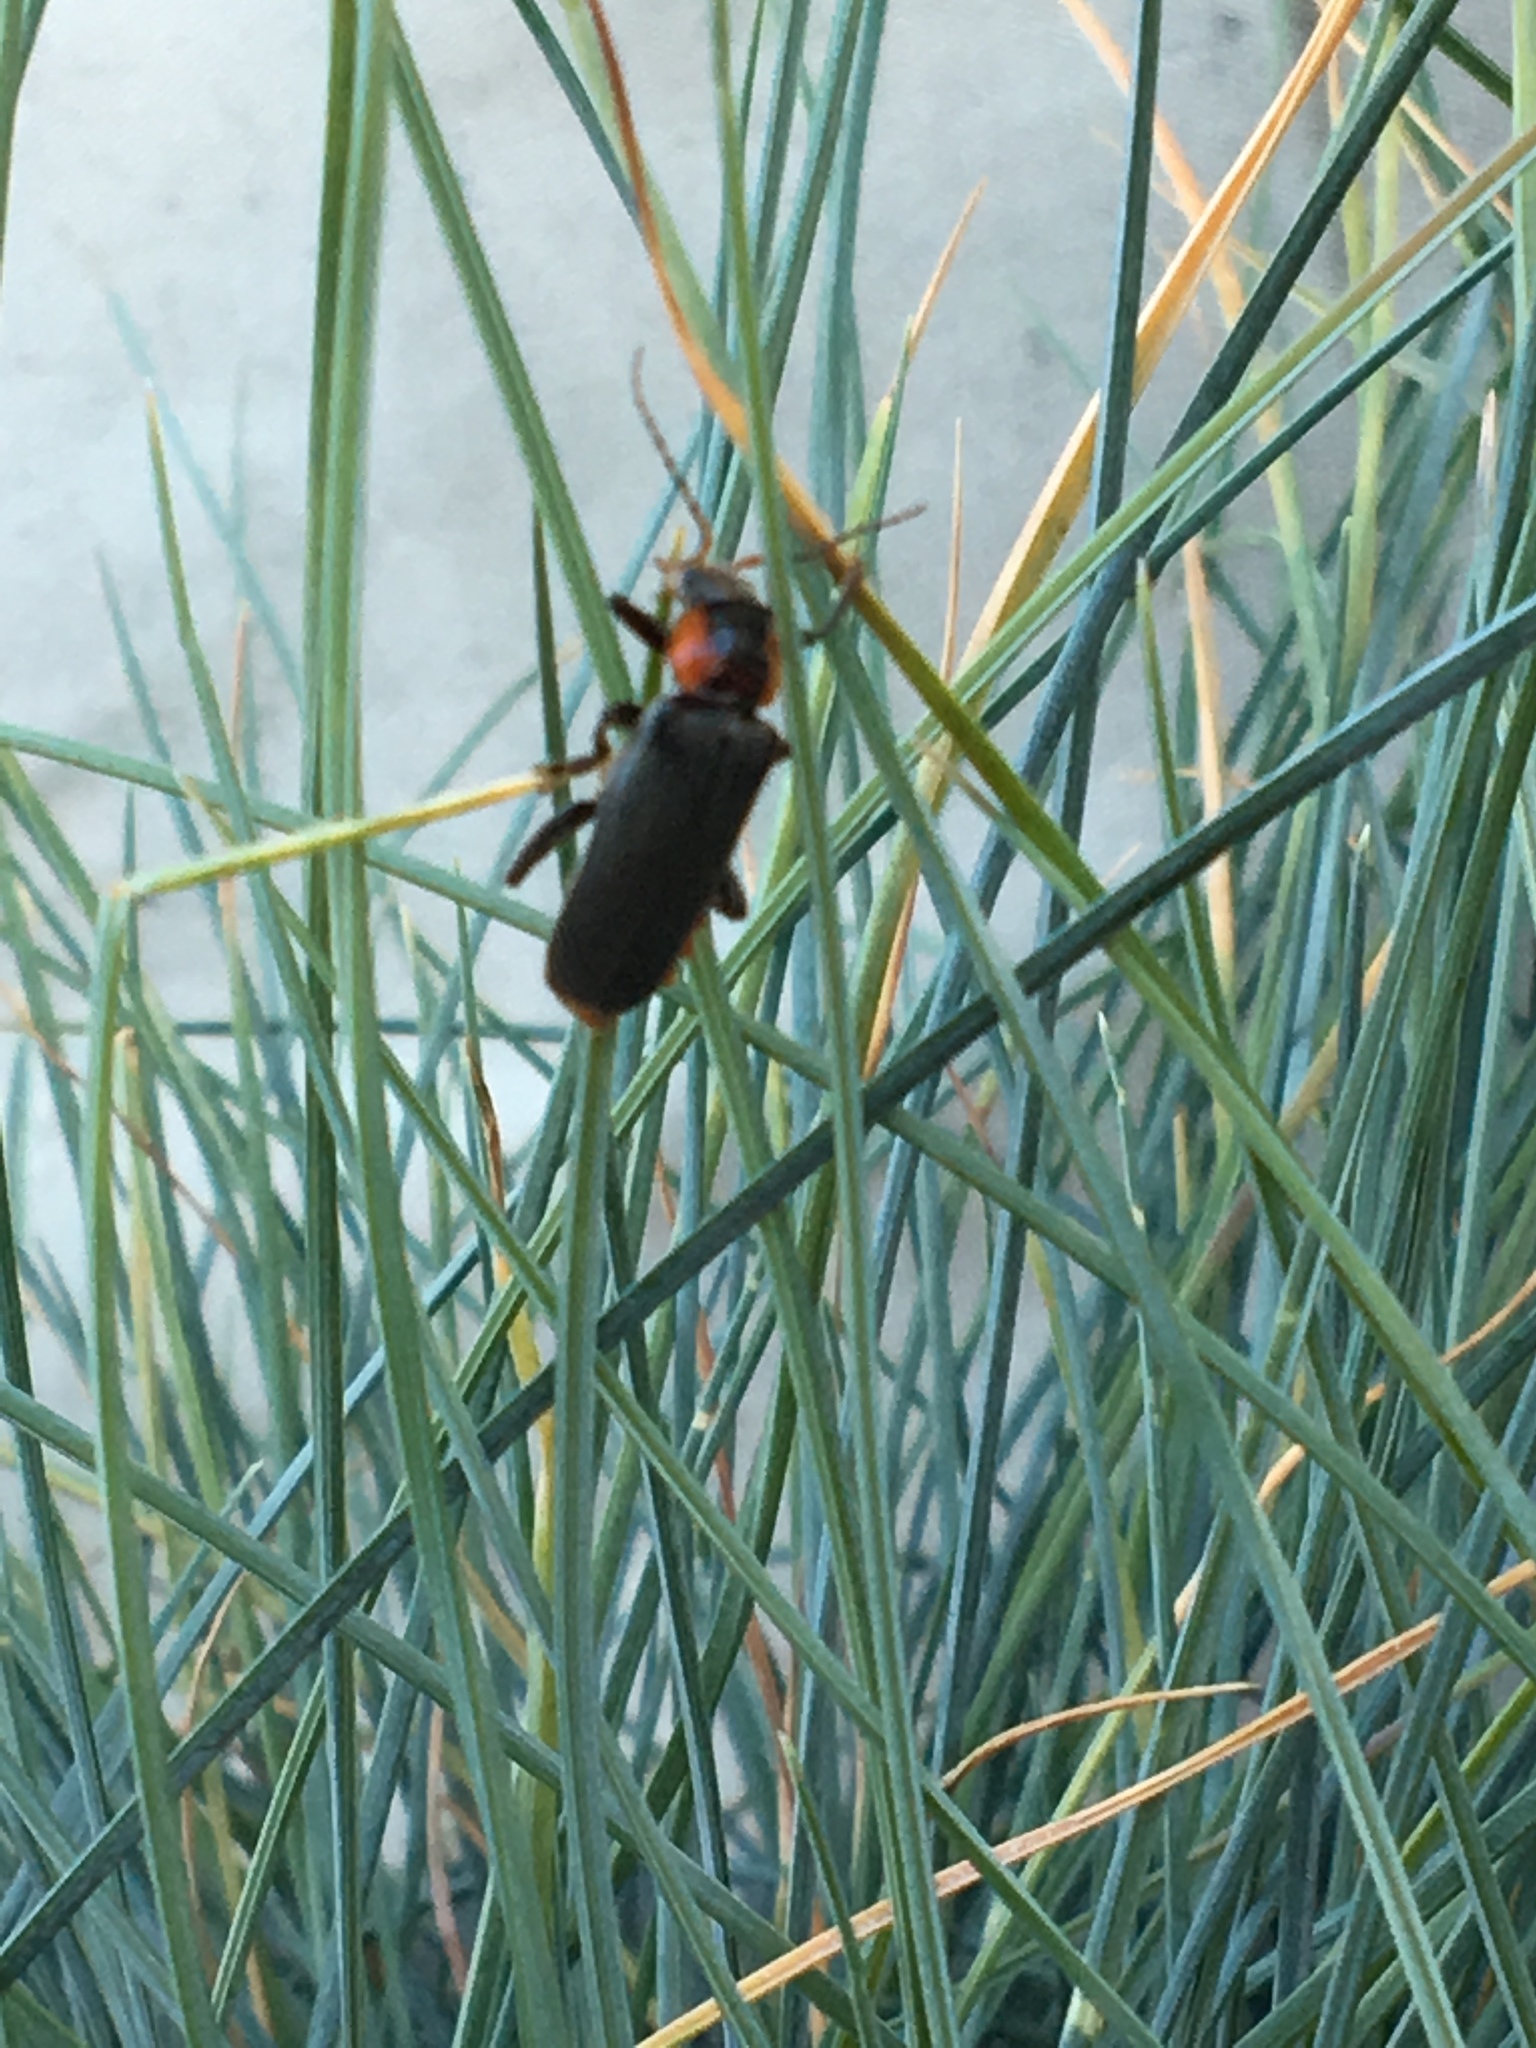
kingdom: Animalia
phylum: Arthropoda
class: Insecta
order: Coleoptera
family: Cantharidae
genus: Cantharis
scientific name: Cantharis fusca
